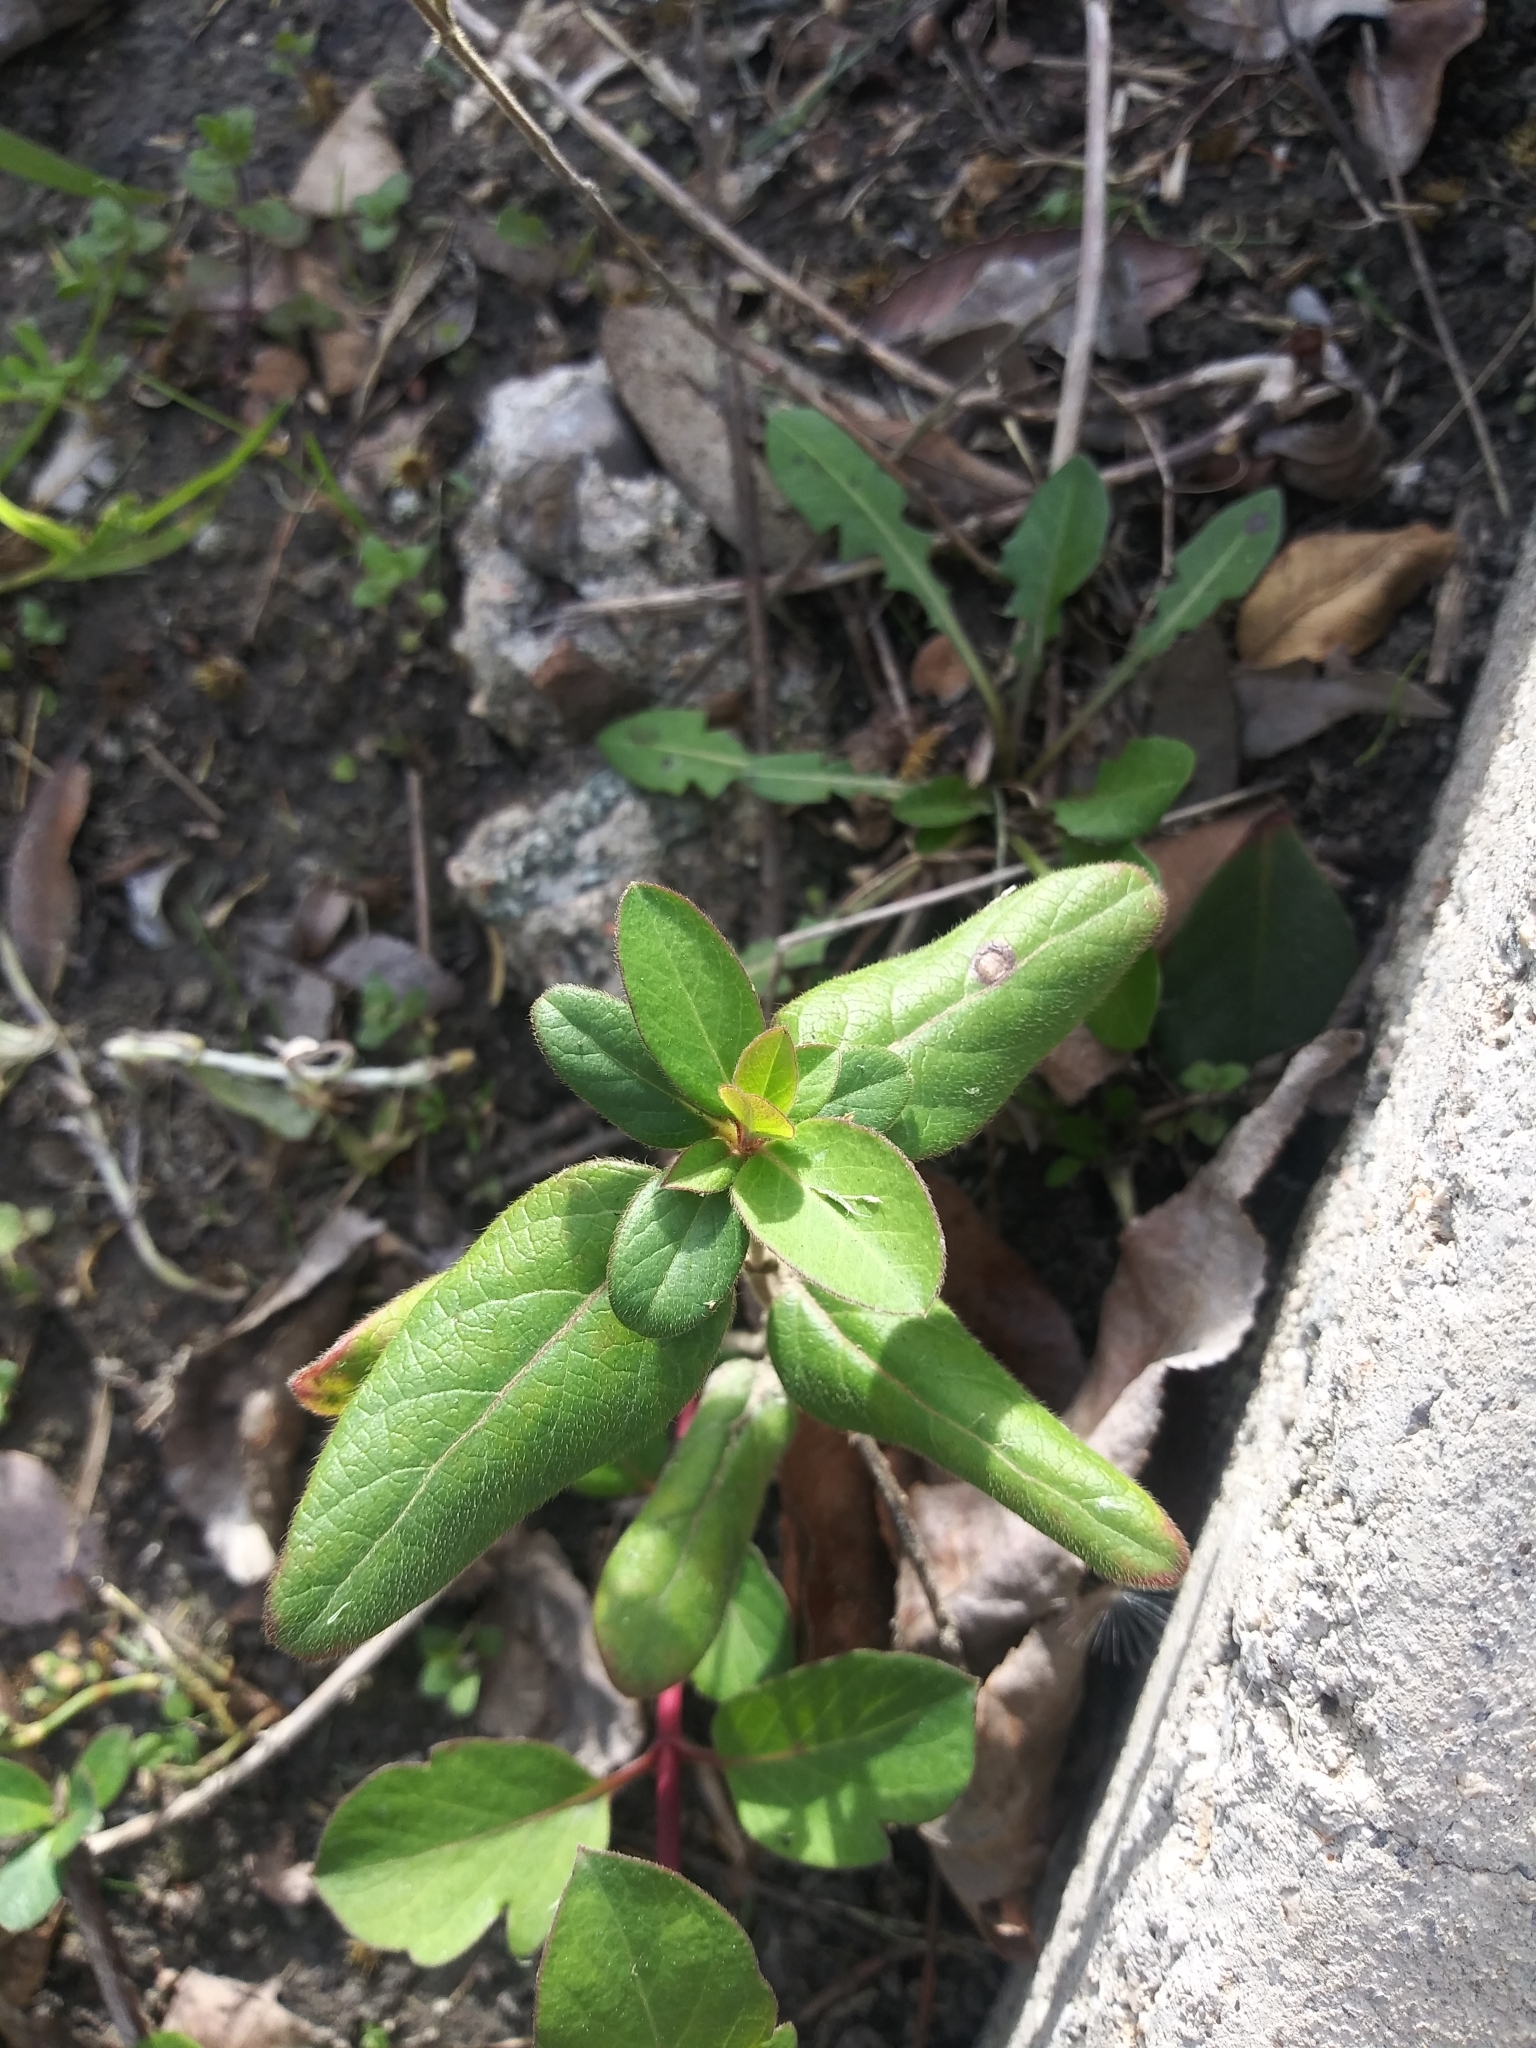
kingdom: Plantae
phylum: Tracheophyta
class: Magnoliopsida
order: Dipsacales
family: Caprifoliaceae
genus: Lonicera
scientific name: Lonicera japonica
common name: Japanese honeysuckle
